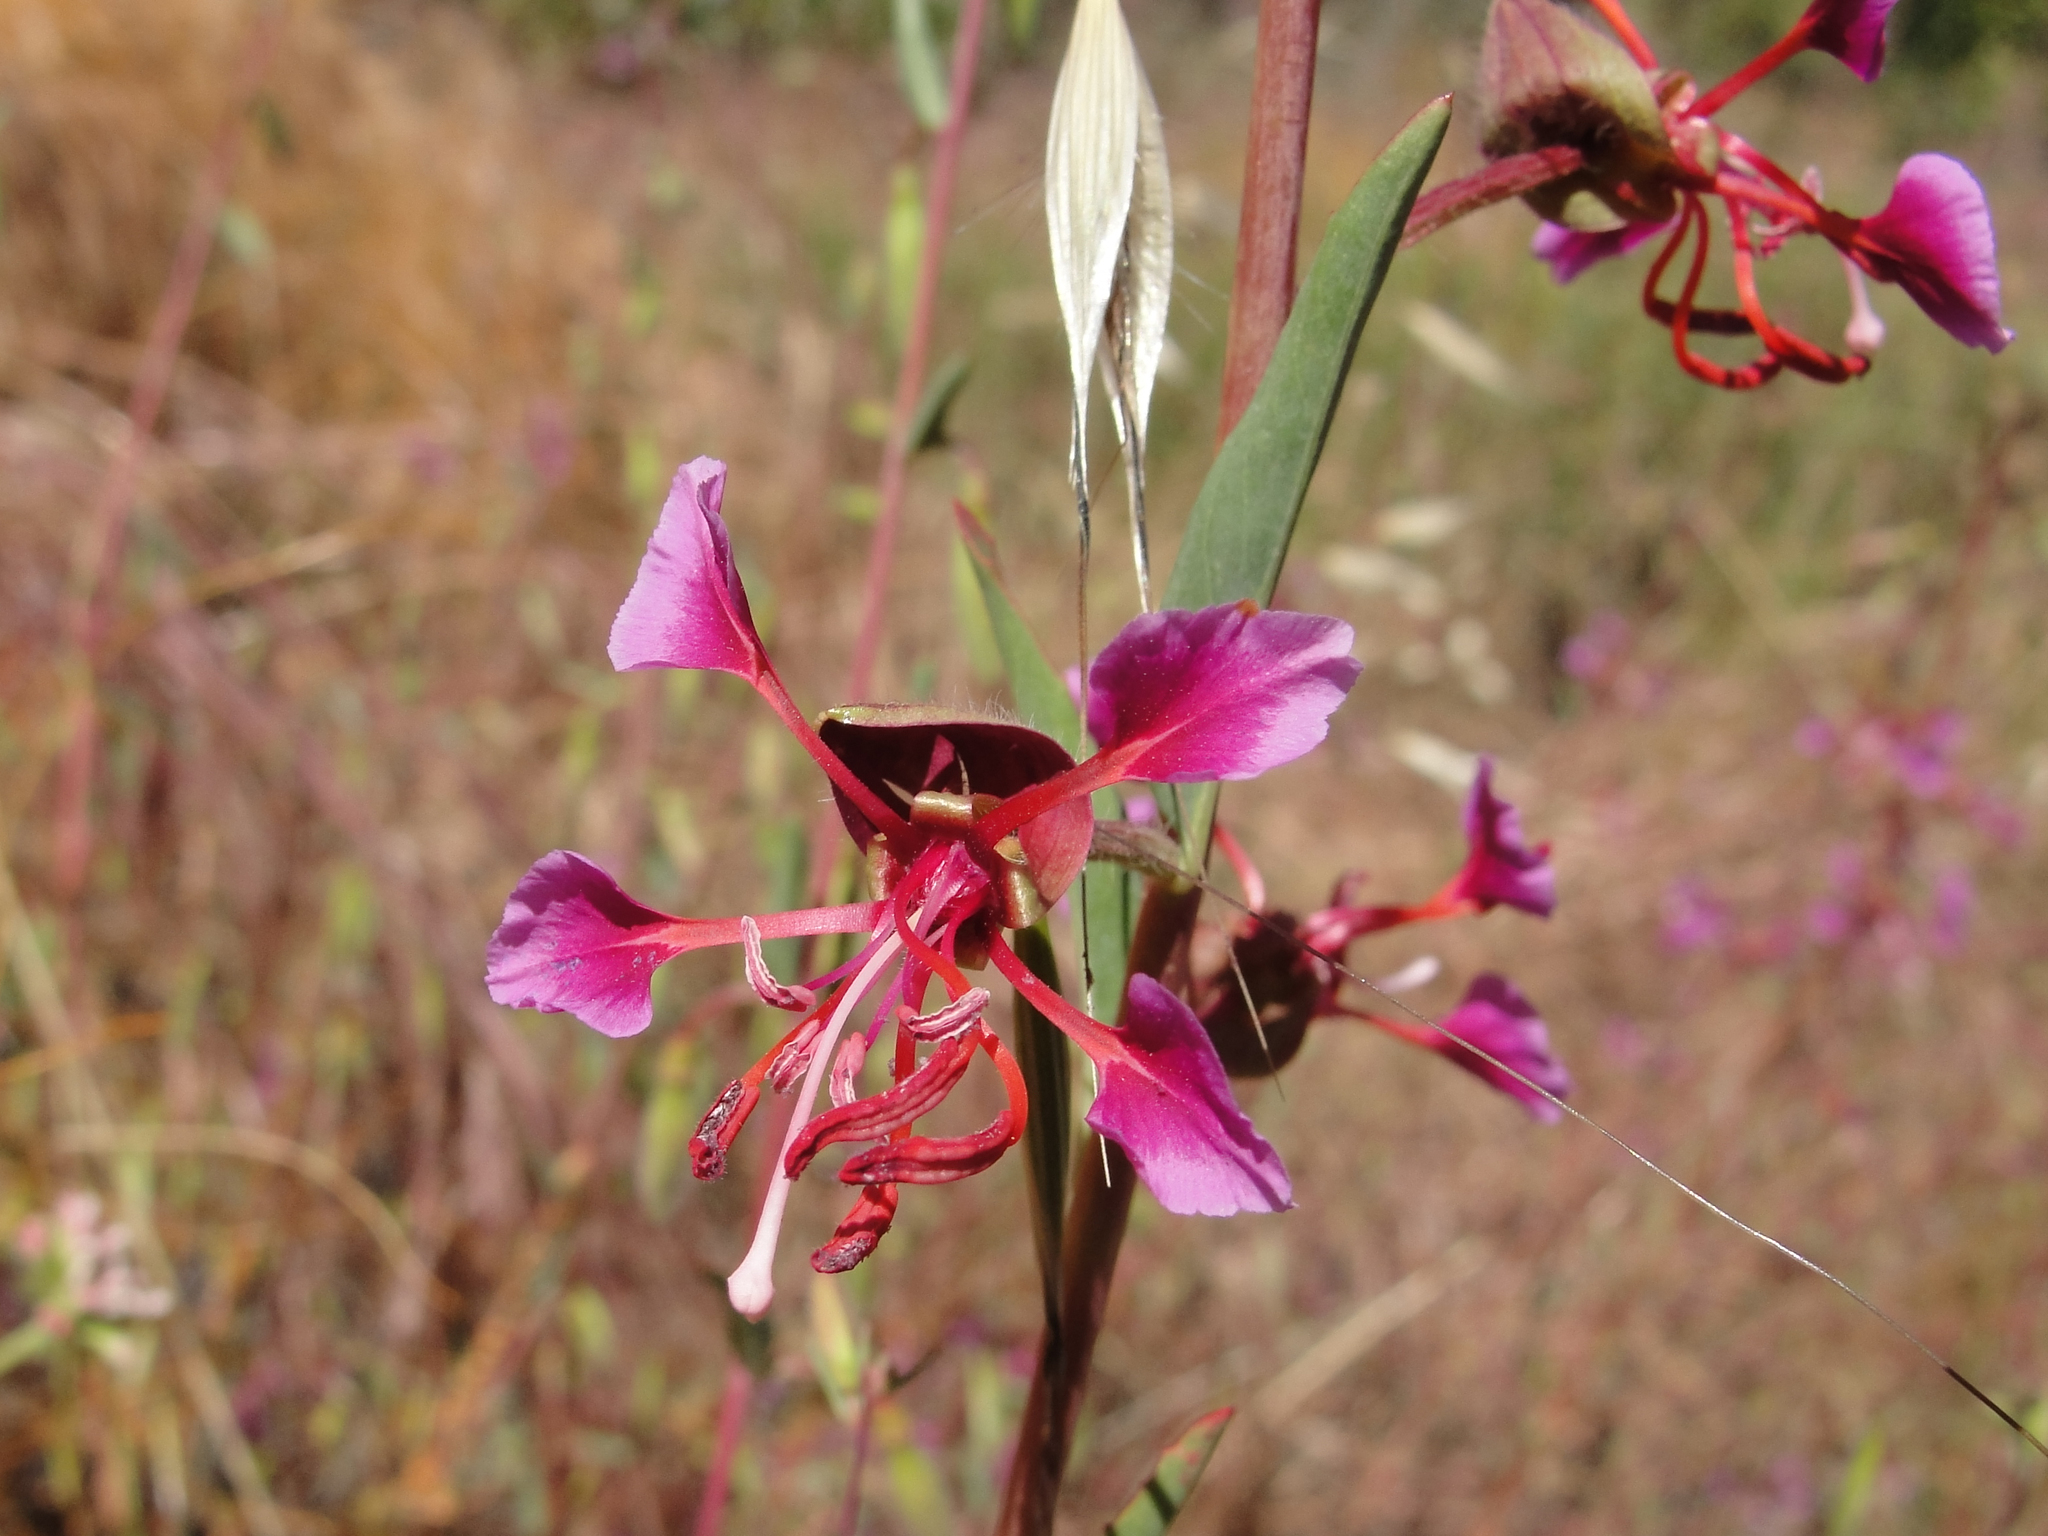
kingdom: Plantae
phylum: Tracheophyta
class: Magnoliopsida
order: Myrtales
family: Onagraceae
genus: Clarkia
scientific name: Clarkia unguiculata
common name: Clarkia
